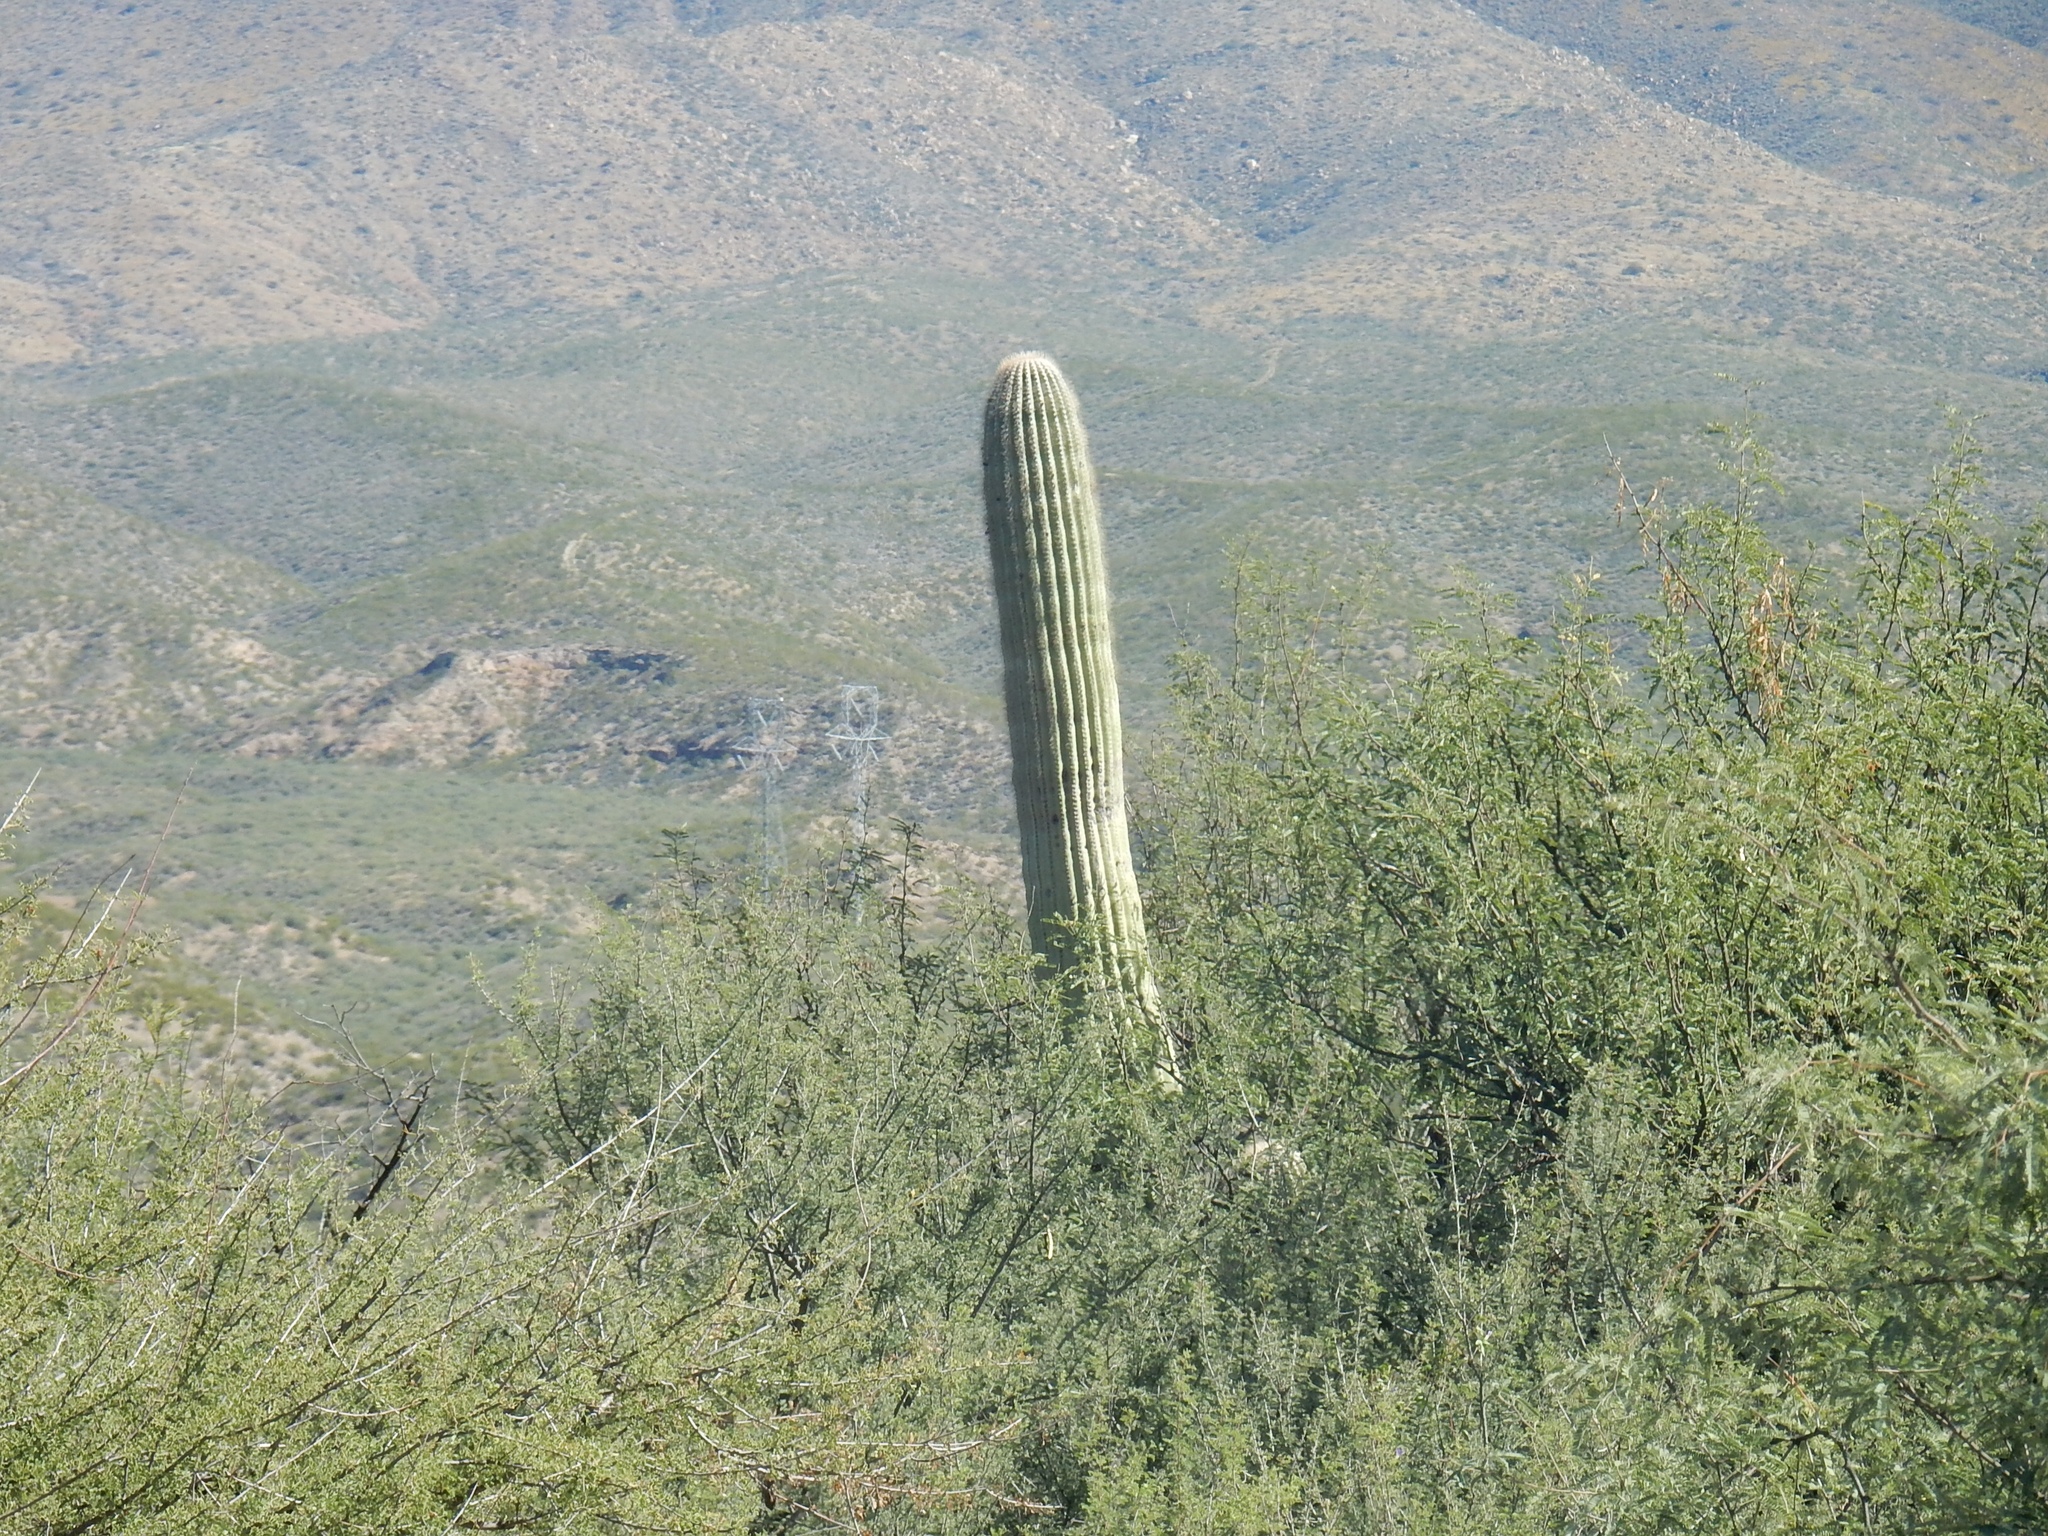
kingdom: Plantae
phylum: Tracheophyta
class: Magnoliopsida
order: Caryophyllales
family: Cactaceae
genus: Carnegiea
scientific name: Carnegiea gigantea
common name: Saguaro
